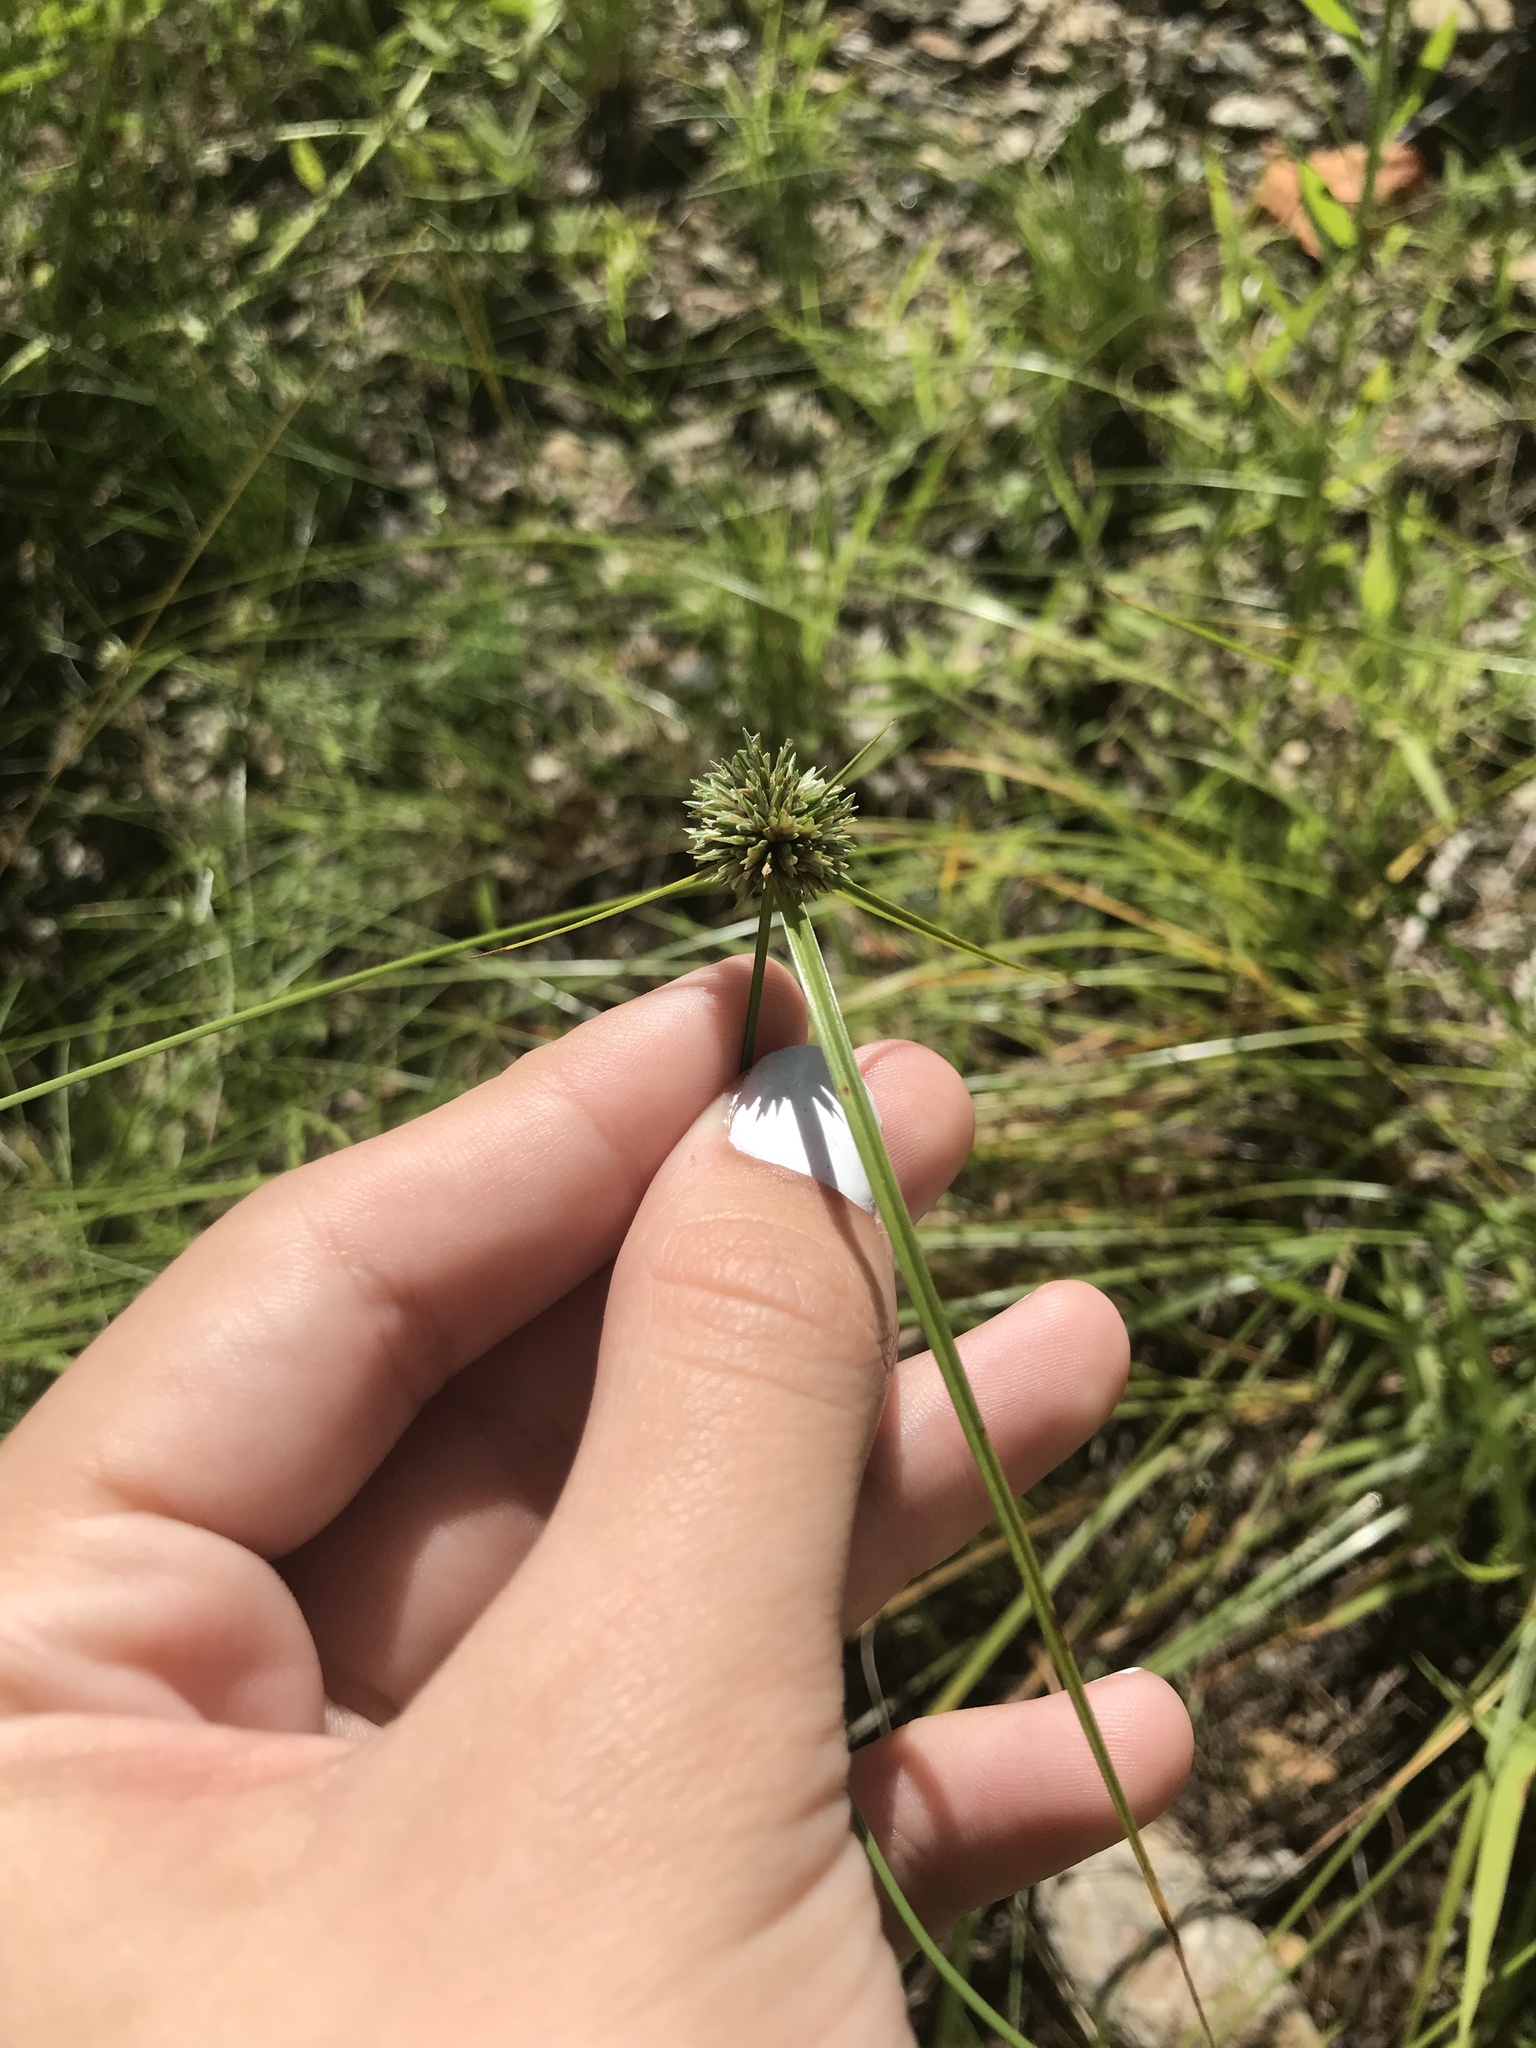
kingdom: Plantae
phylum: Tracheophyta
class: Liliopsida
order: Poales
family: Cyperaceae
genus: Cyperus
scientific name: Cyperus lupulinus
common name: Great plains flatsedge
